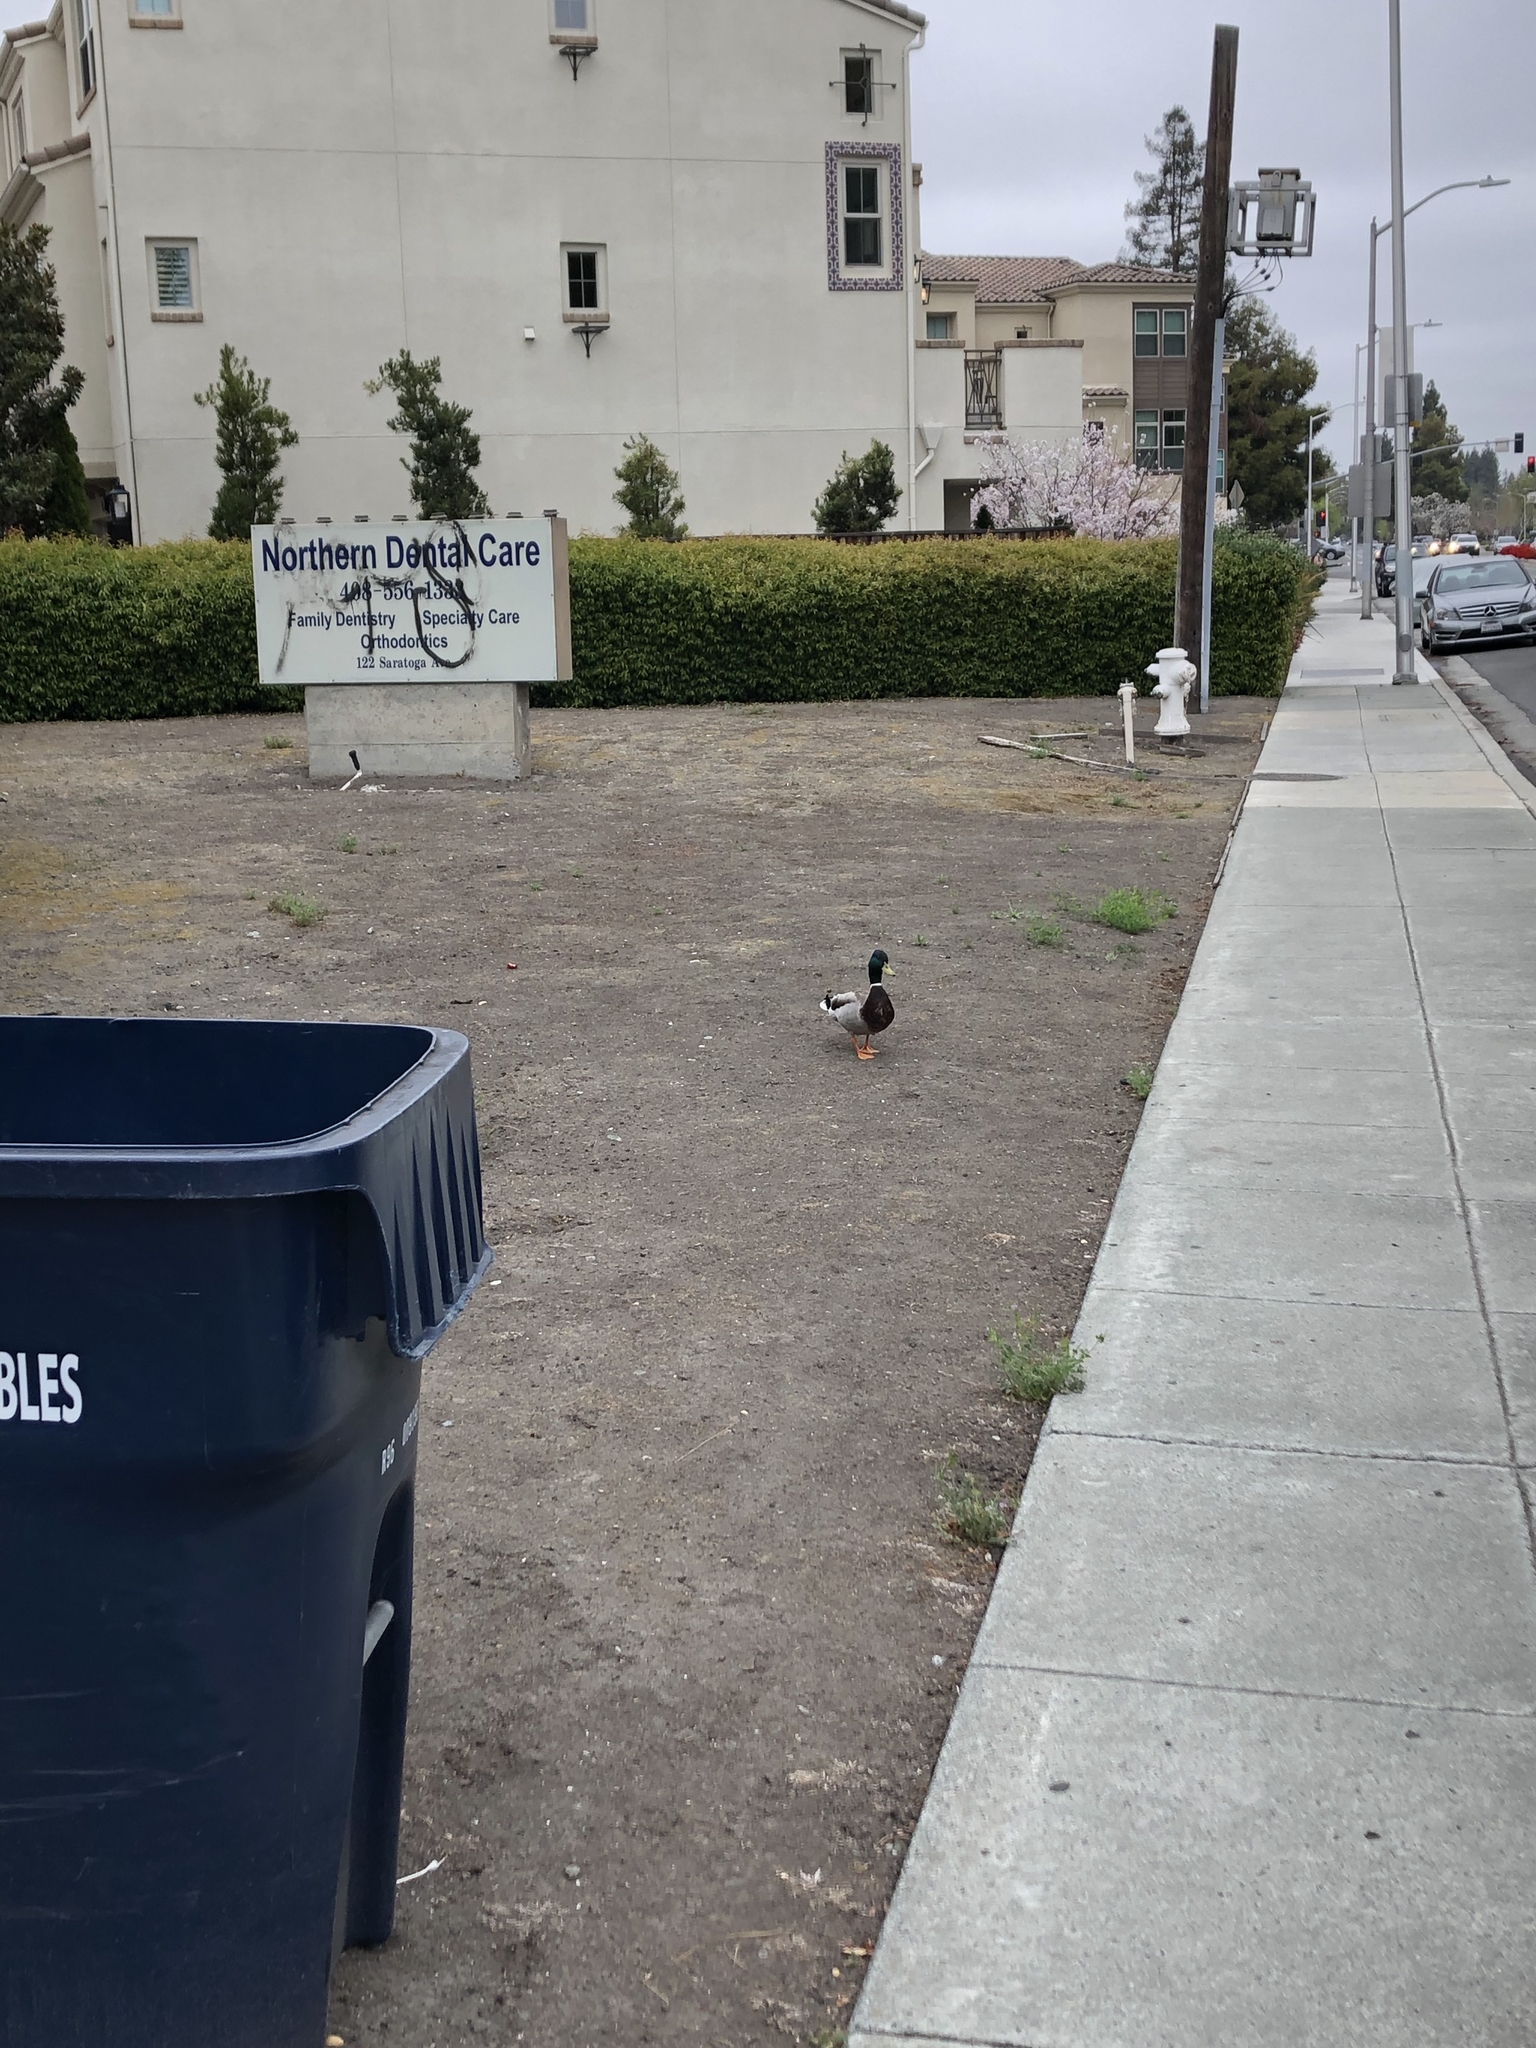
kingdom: Animalia
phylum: Chordata
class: Aves
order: Anseriformes
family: Anatidae
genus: Anas
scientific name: Anas platyrhynchos
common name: Mallard
